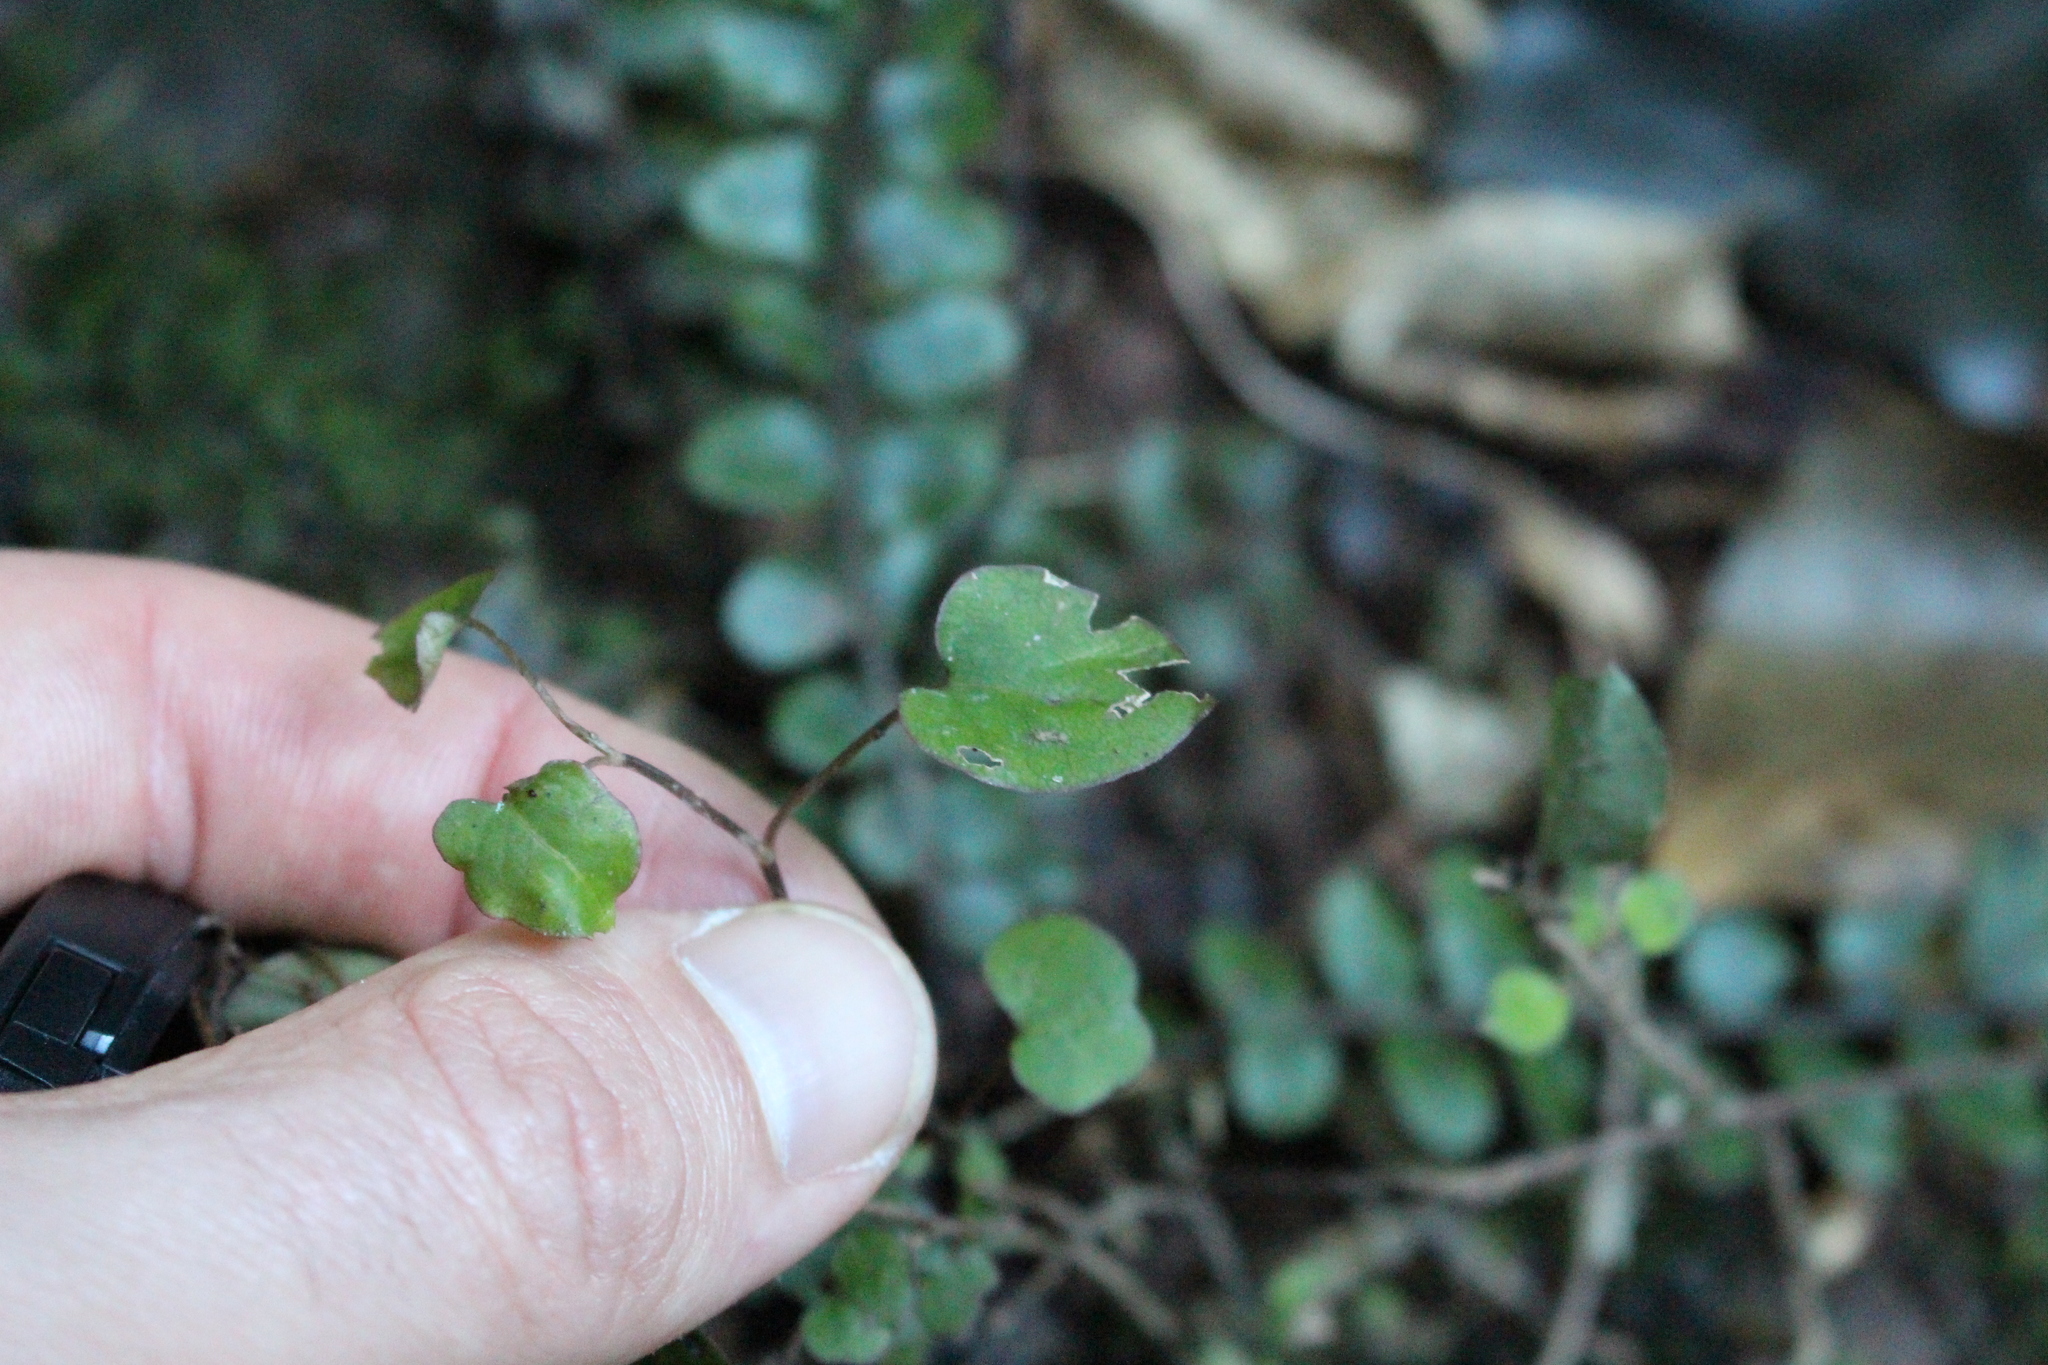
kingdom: Plantae
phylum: Tracheophyta
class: Magnoliopsida
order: Caryophyllales
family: Polygonaceae
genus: Muehlenbeckia
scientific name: Muehlenbeckia australis
